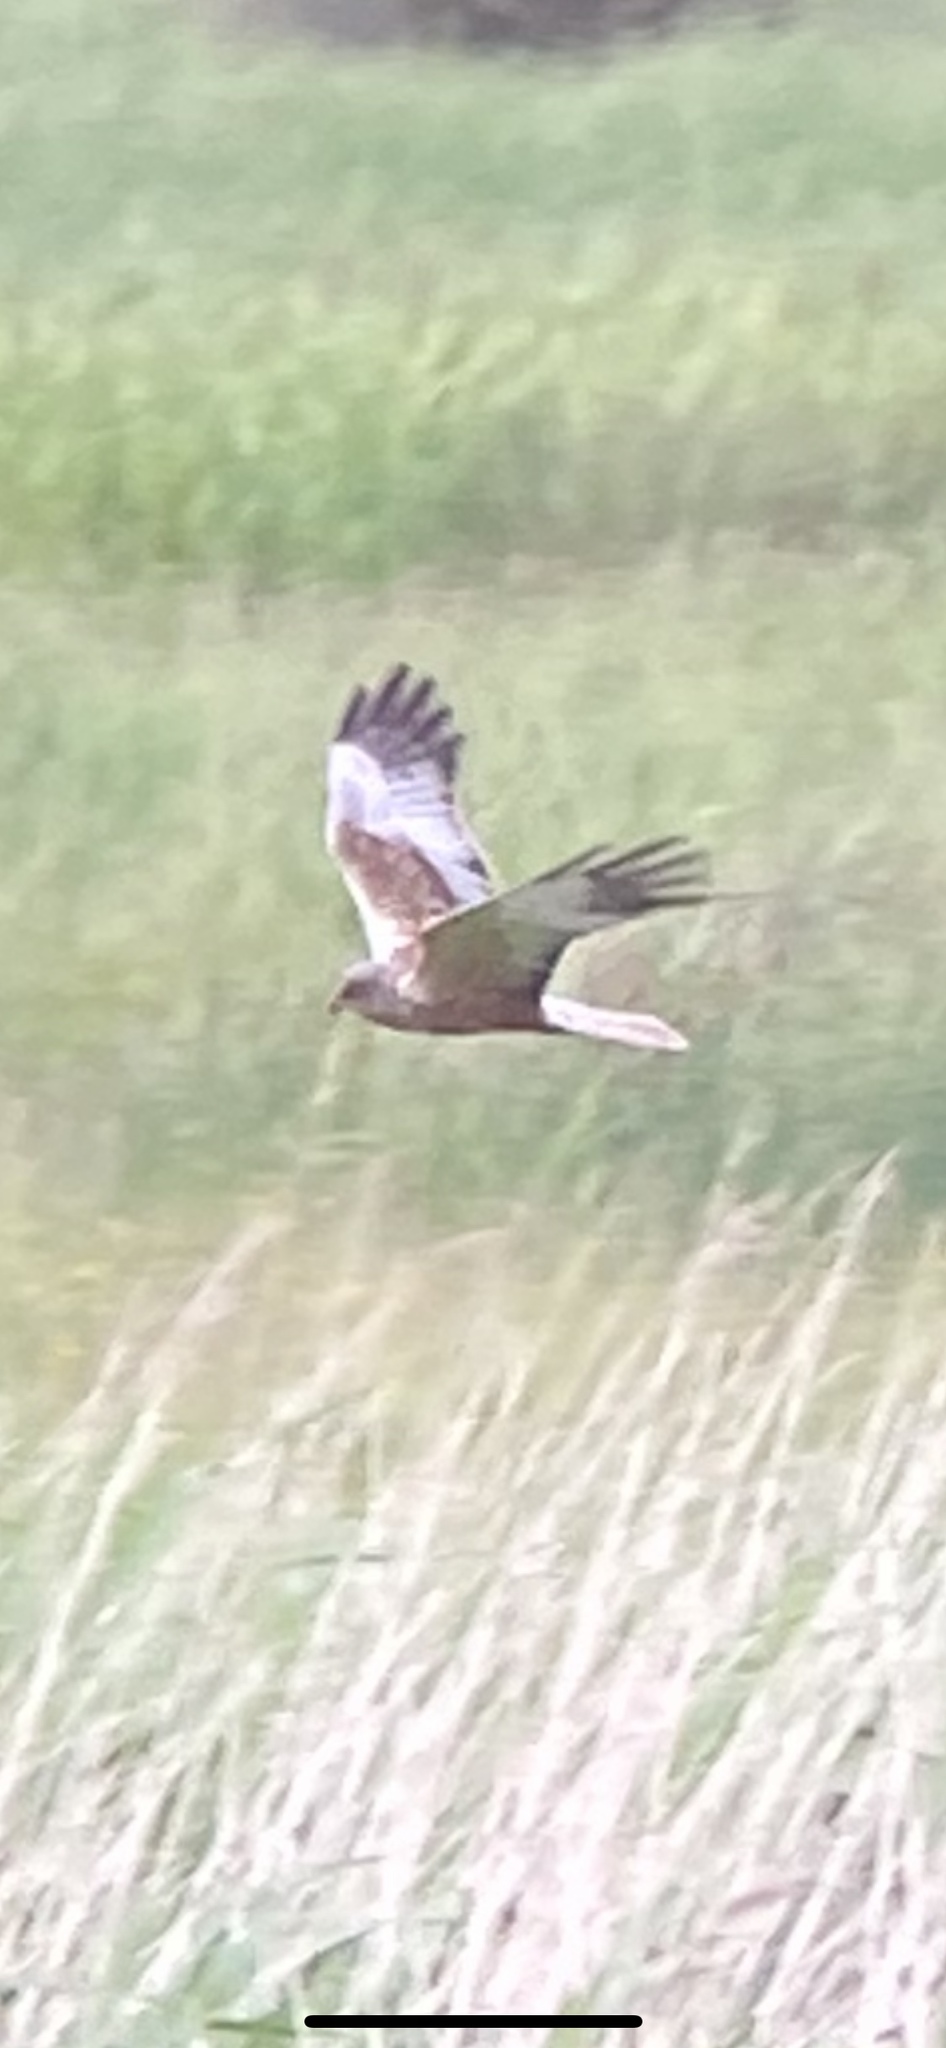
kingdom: Animalia
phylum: Chordata
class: Aves
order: Accipitriformes
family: Accipitridae
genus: Circus
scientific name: Circus aeruginosus
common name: Western marsh harrier
